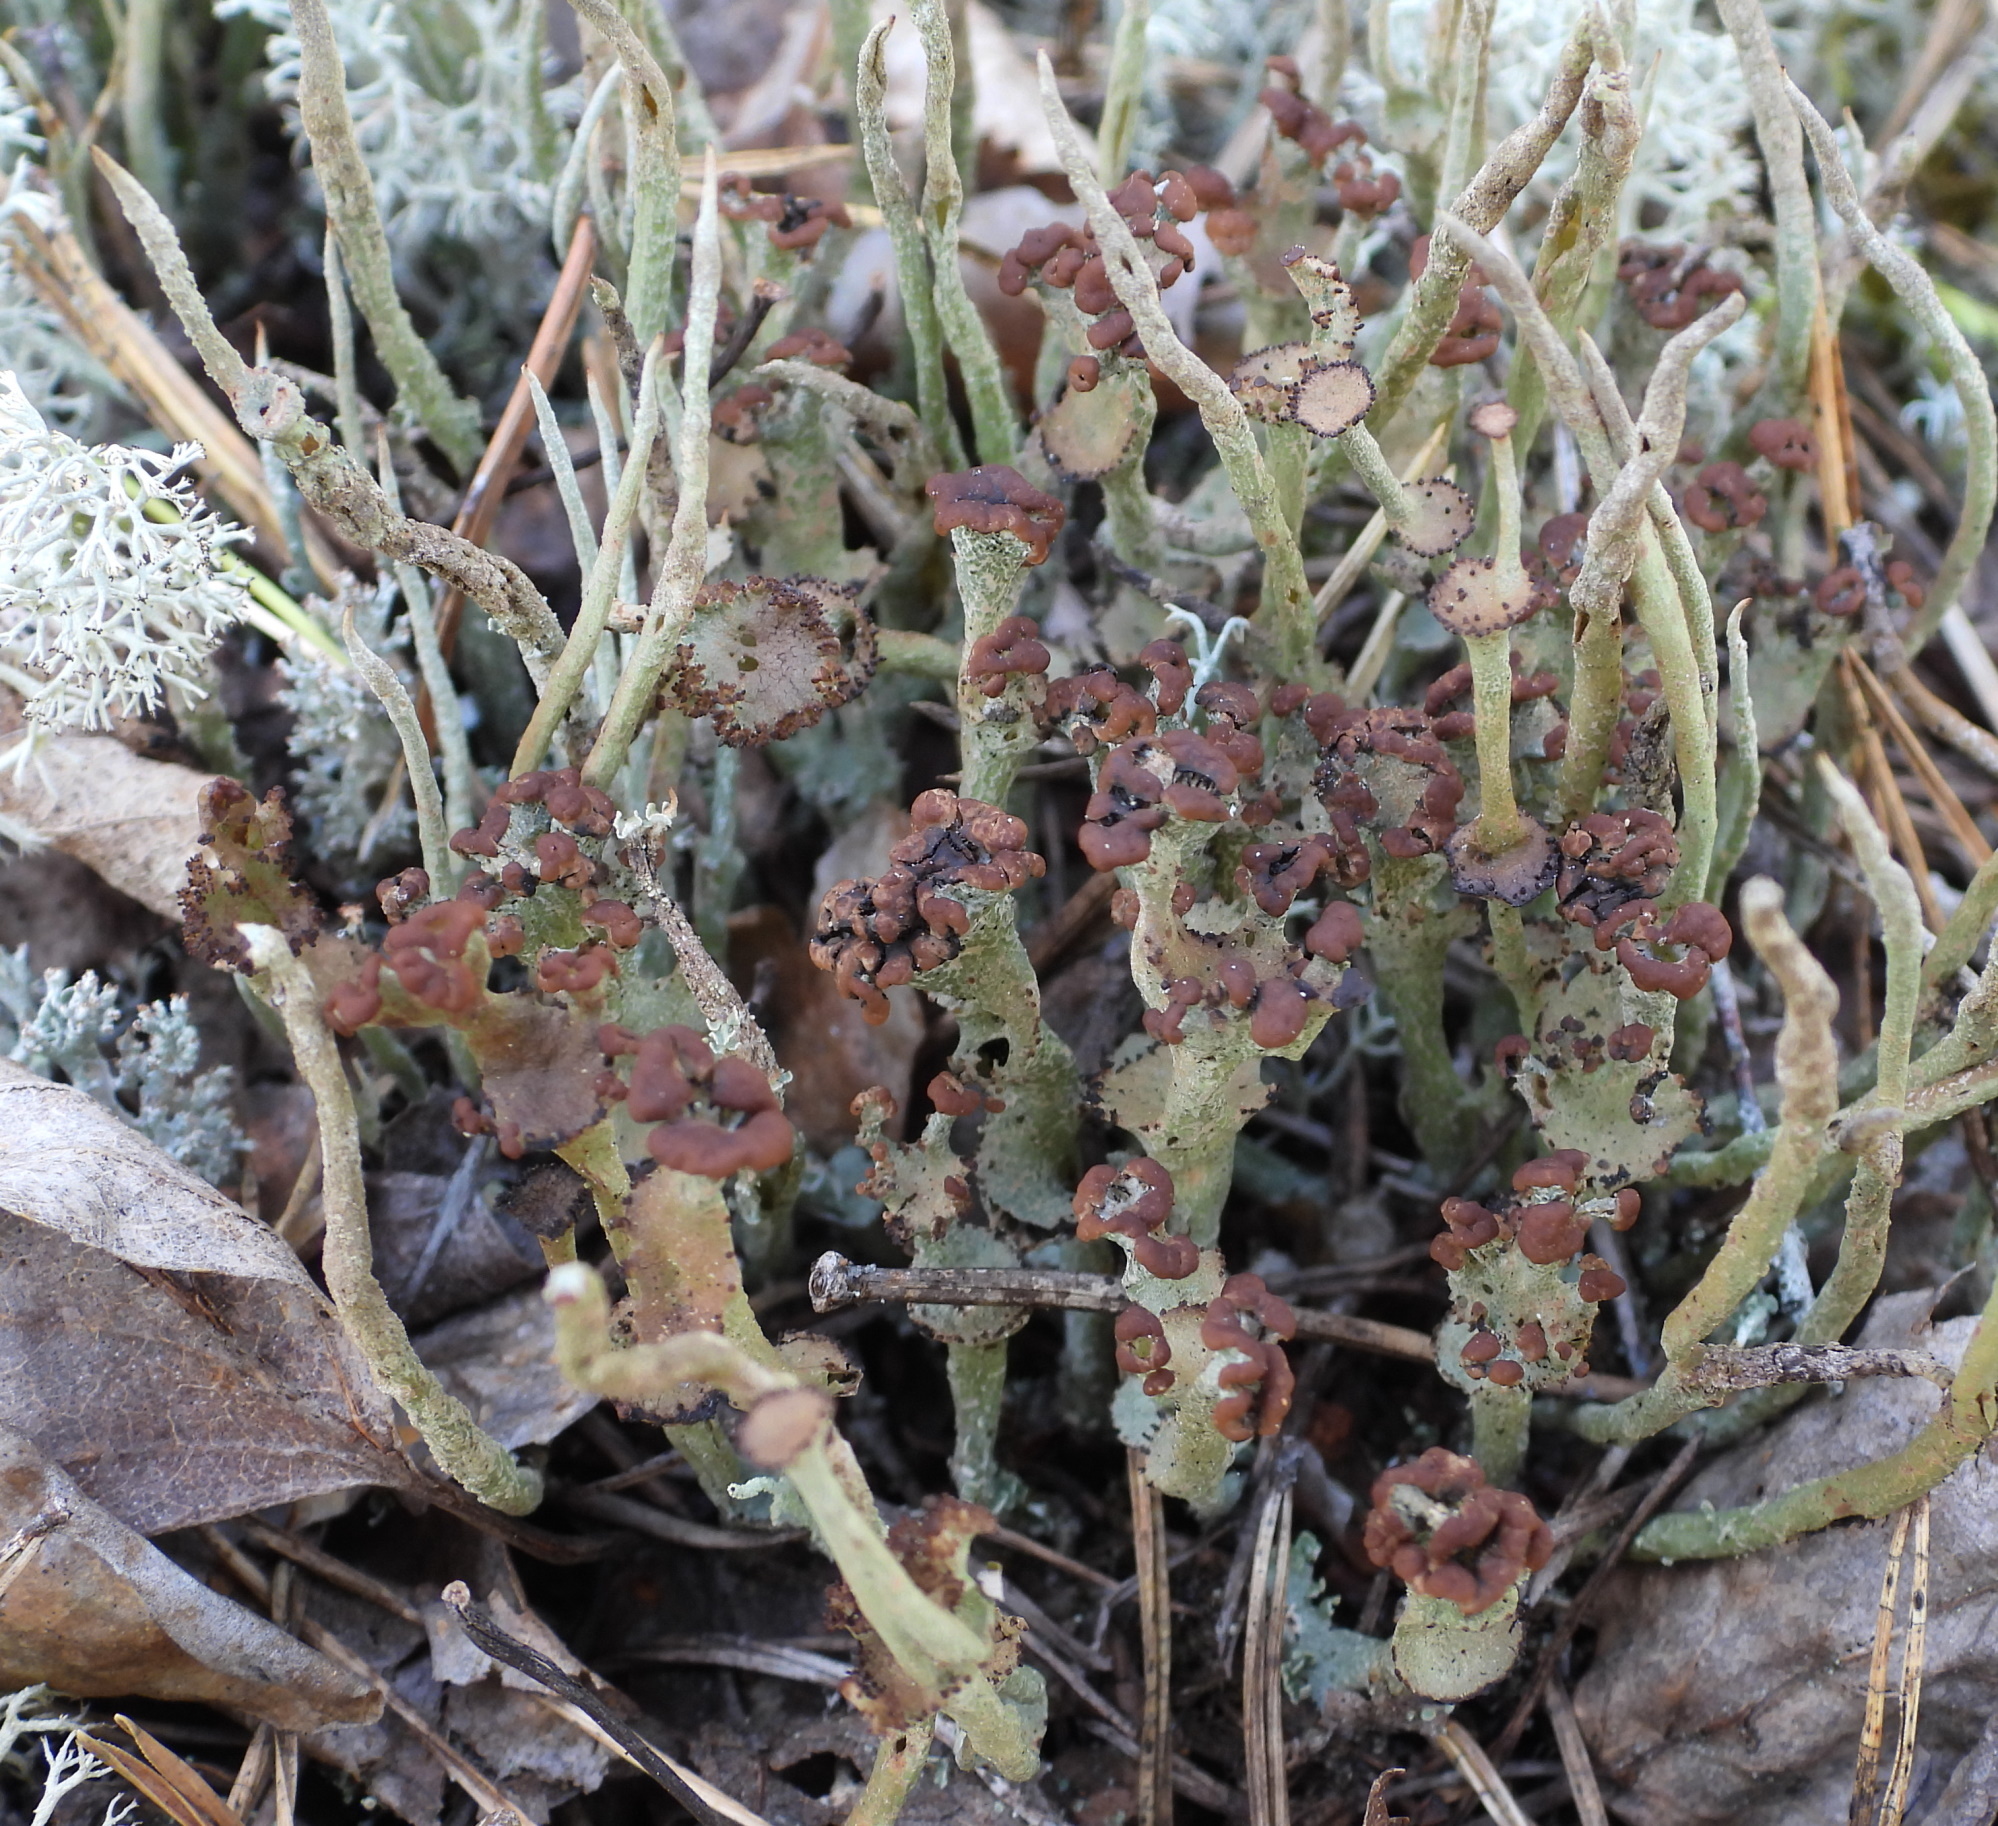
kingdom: Fungi
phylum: Ascomycota
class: Lecanoromycetes
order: Lecanorales
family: Cladoniaceae
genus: Cladonia
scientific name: Cladonia gracilis
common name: Smooth clad lichen
